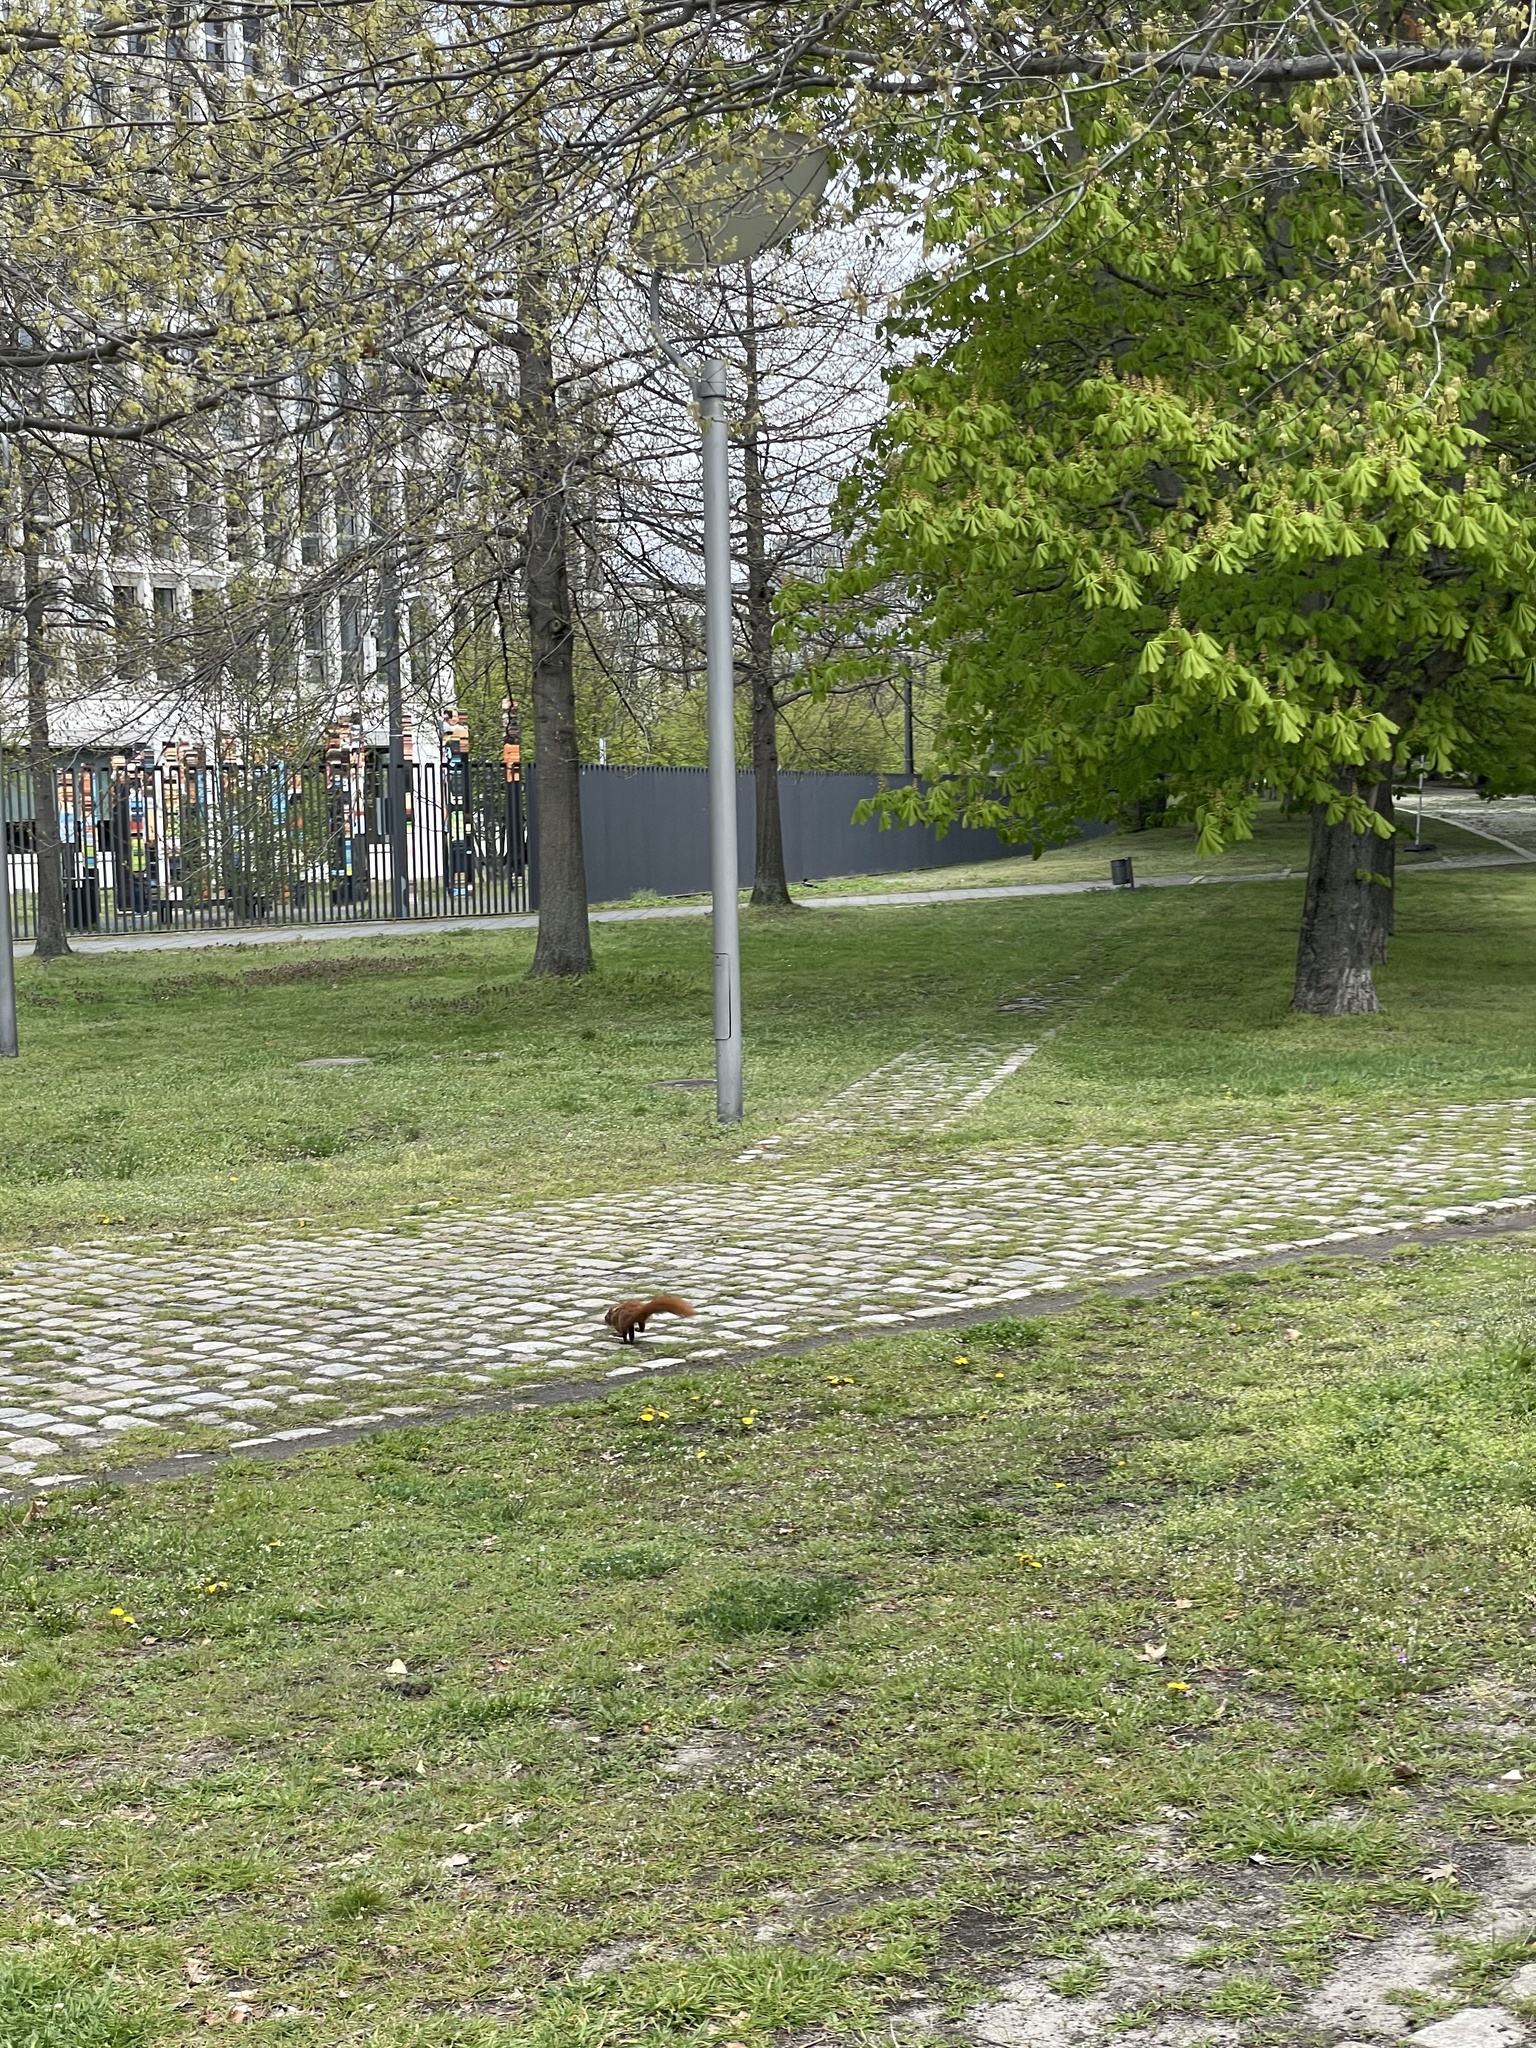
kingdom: Animalia
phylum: Chordata
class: Mammalia
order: Rodentia
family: Sciuridae
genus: Sciurus
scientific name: Sciurus vulgaris
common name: Eurasian red squirrel
